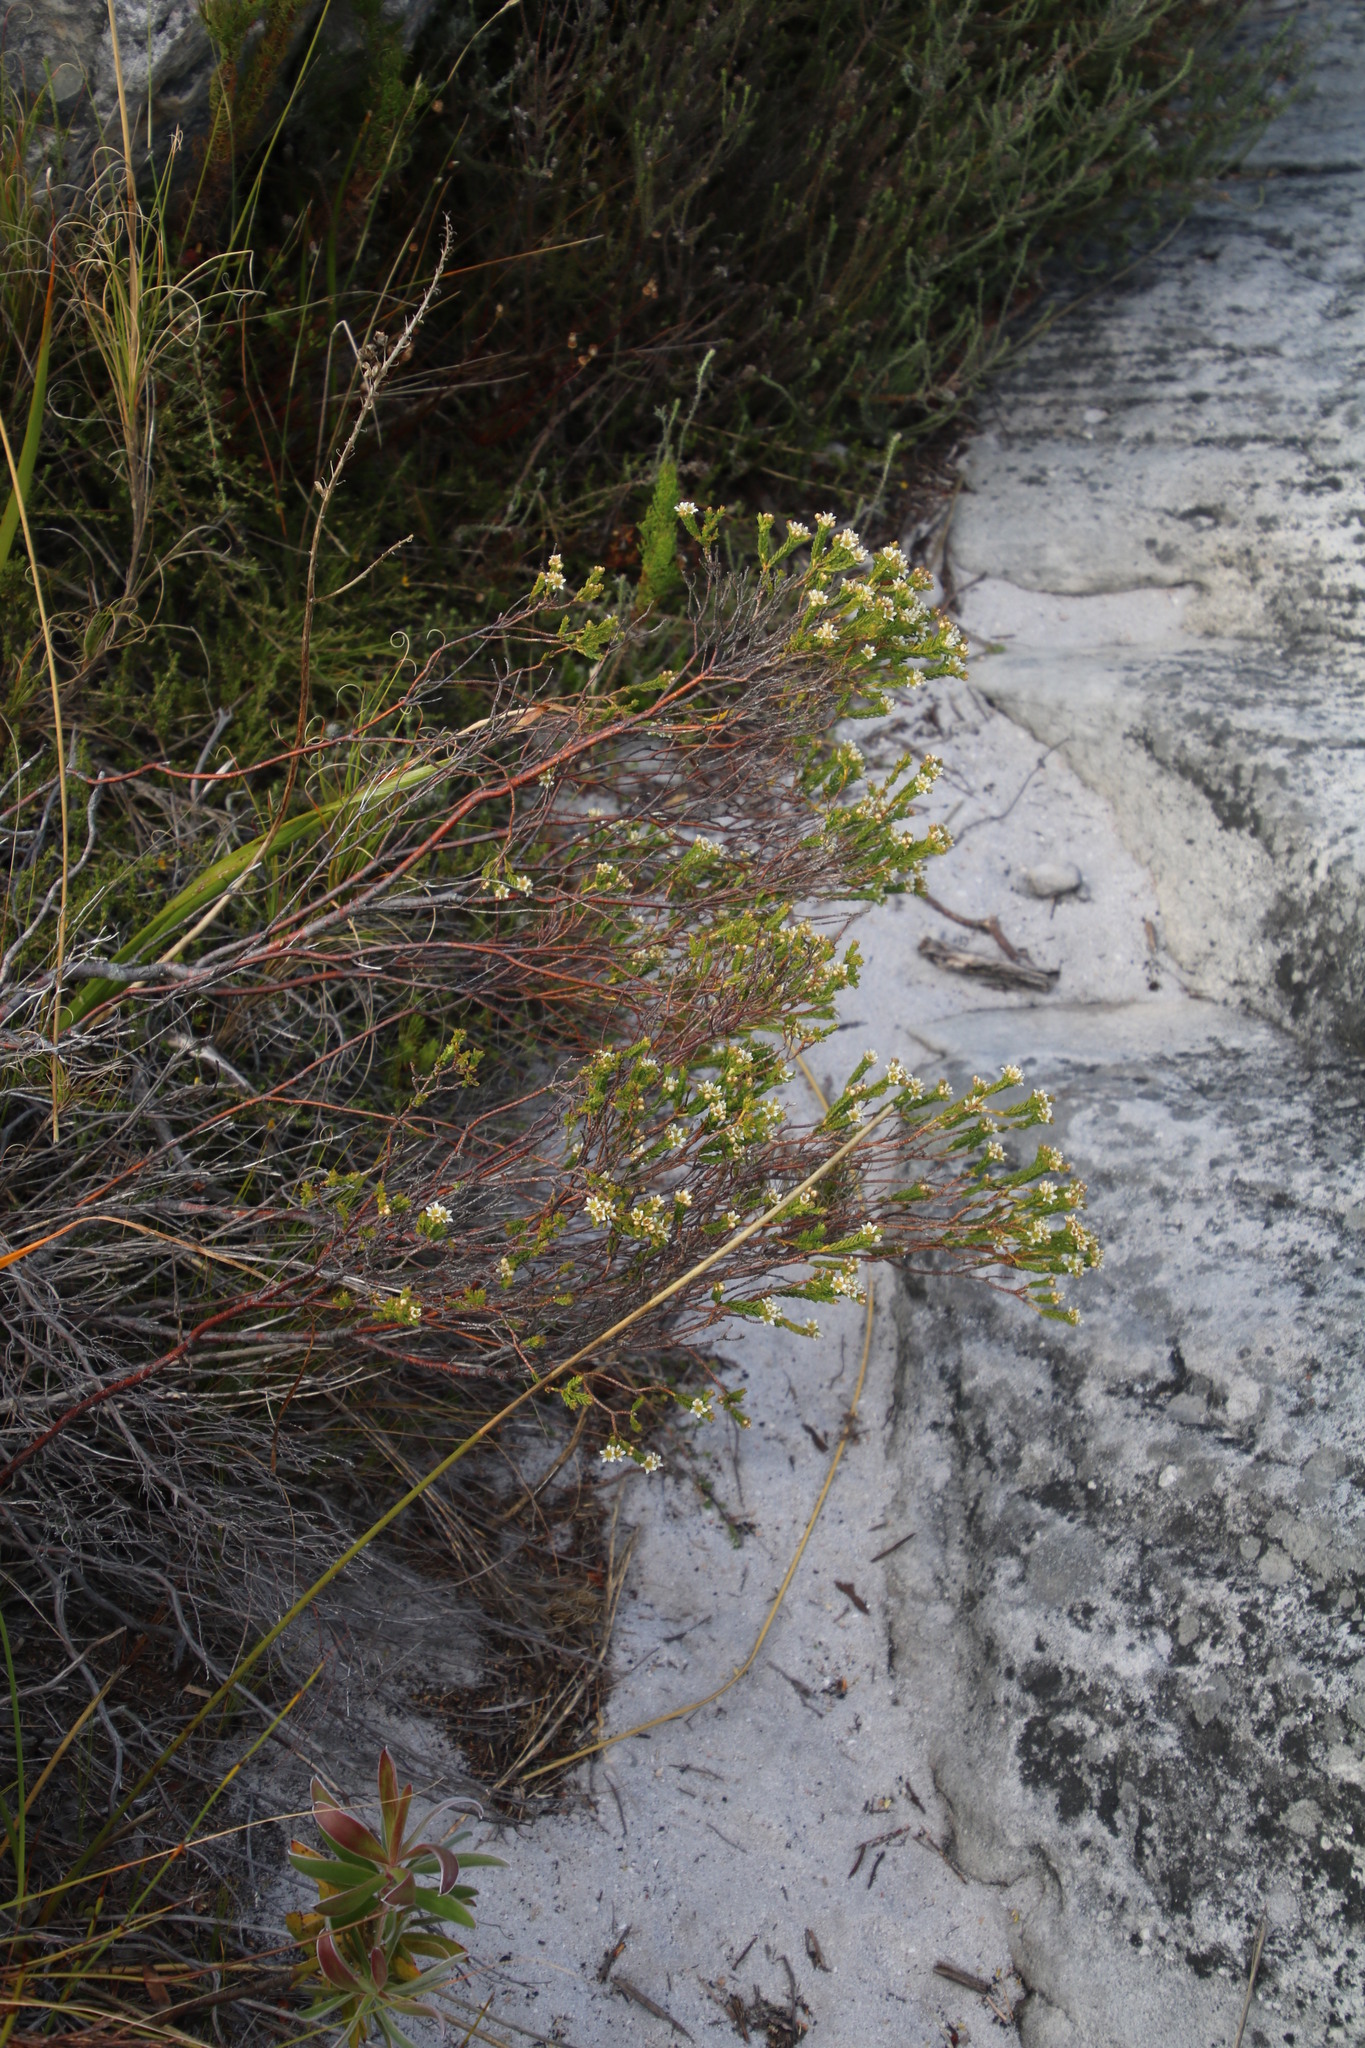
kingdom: Plantae
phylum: Tracheophyta
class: Magnoliopsida
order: Sapindales
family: Rutaceae
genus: Diosma
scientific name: Diosma oppositifolia
